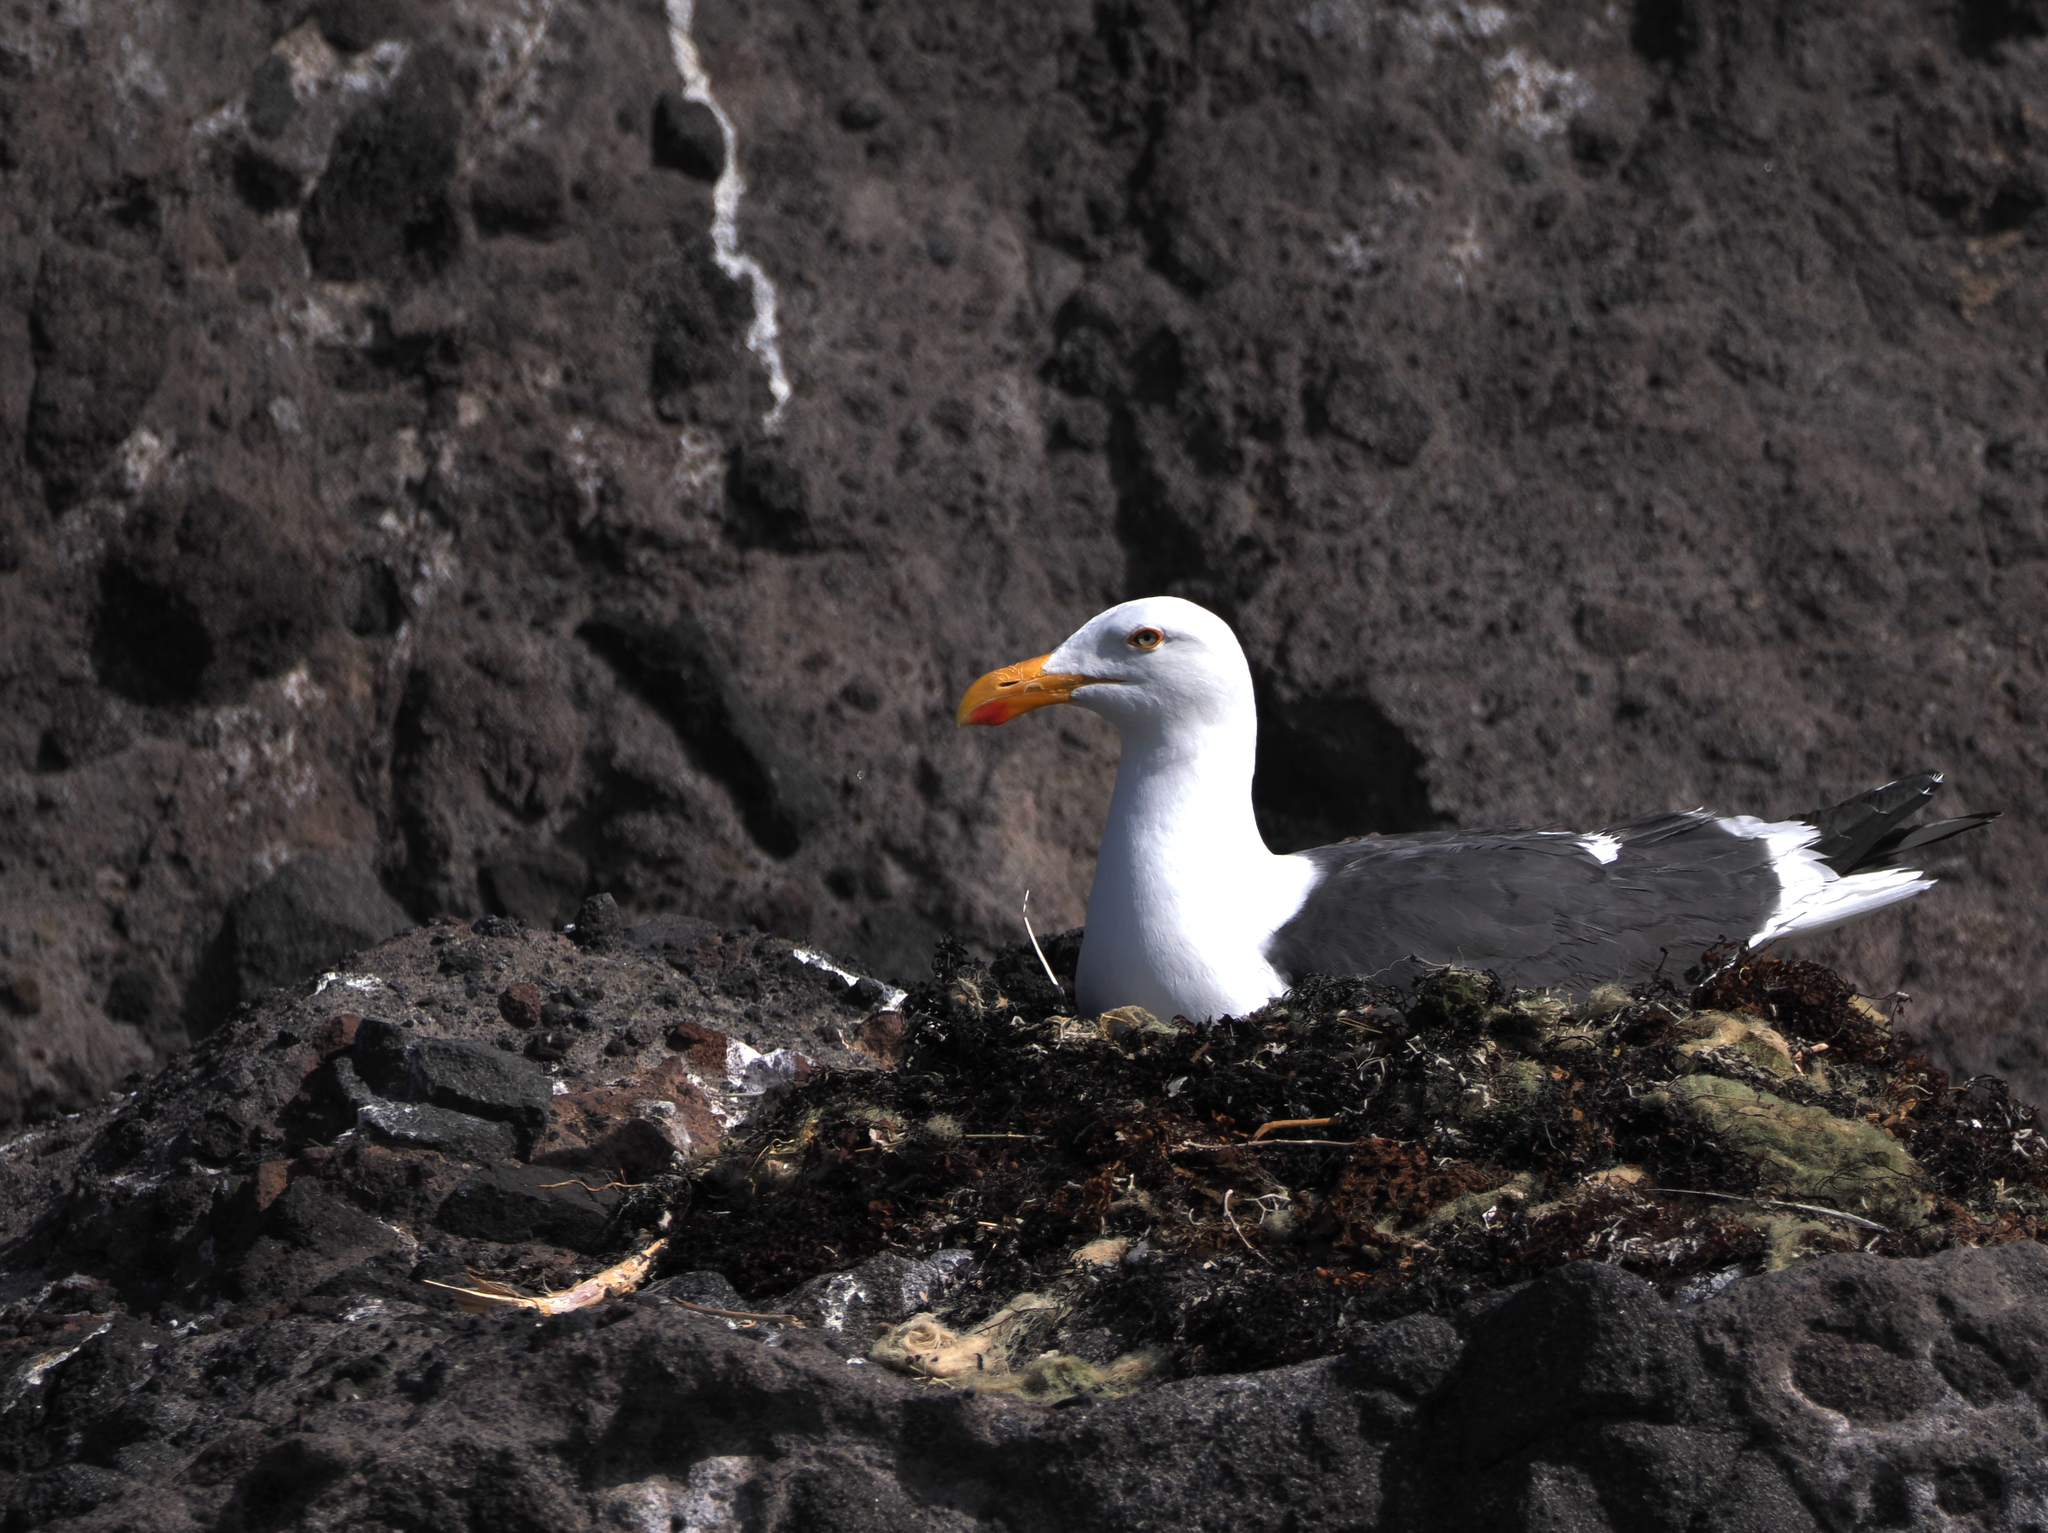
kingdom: Animalia
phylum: Chordata
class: Aves
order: Charadriiformes
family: Laridae
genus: Larus
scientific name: Larus livens
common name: Yellow-footed gull
